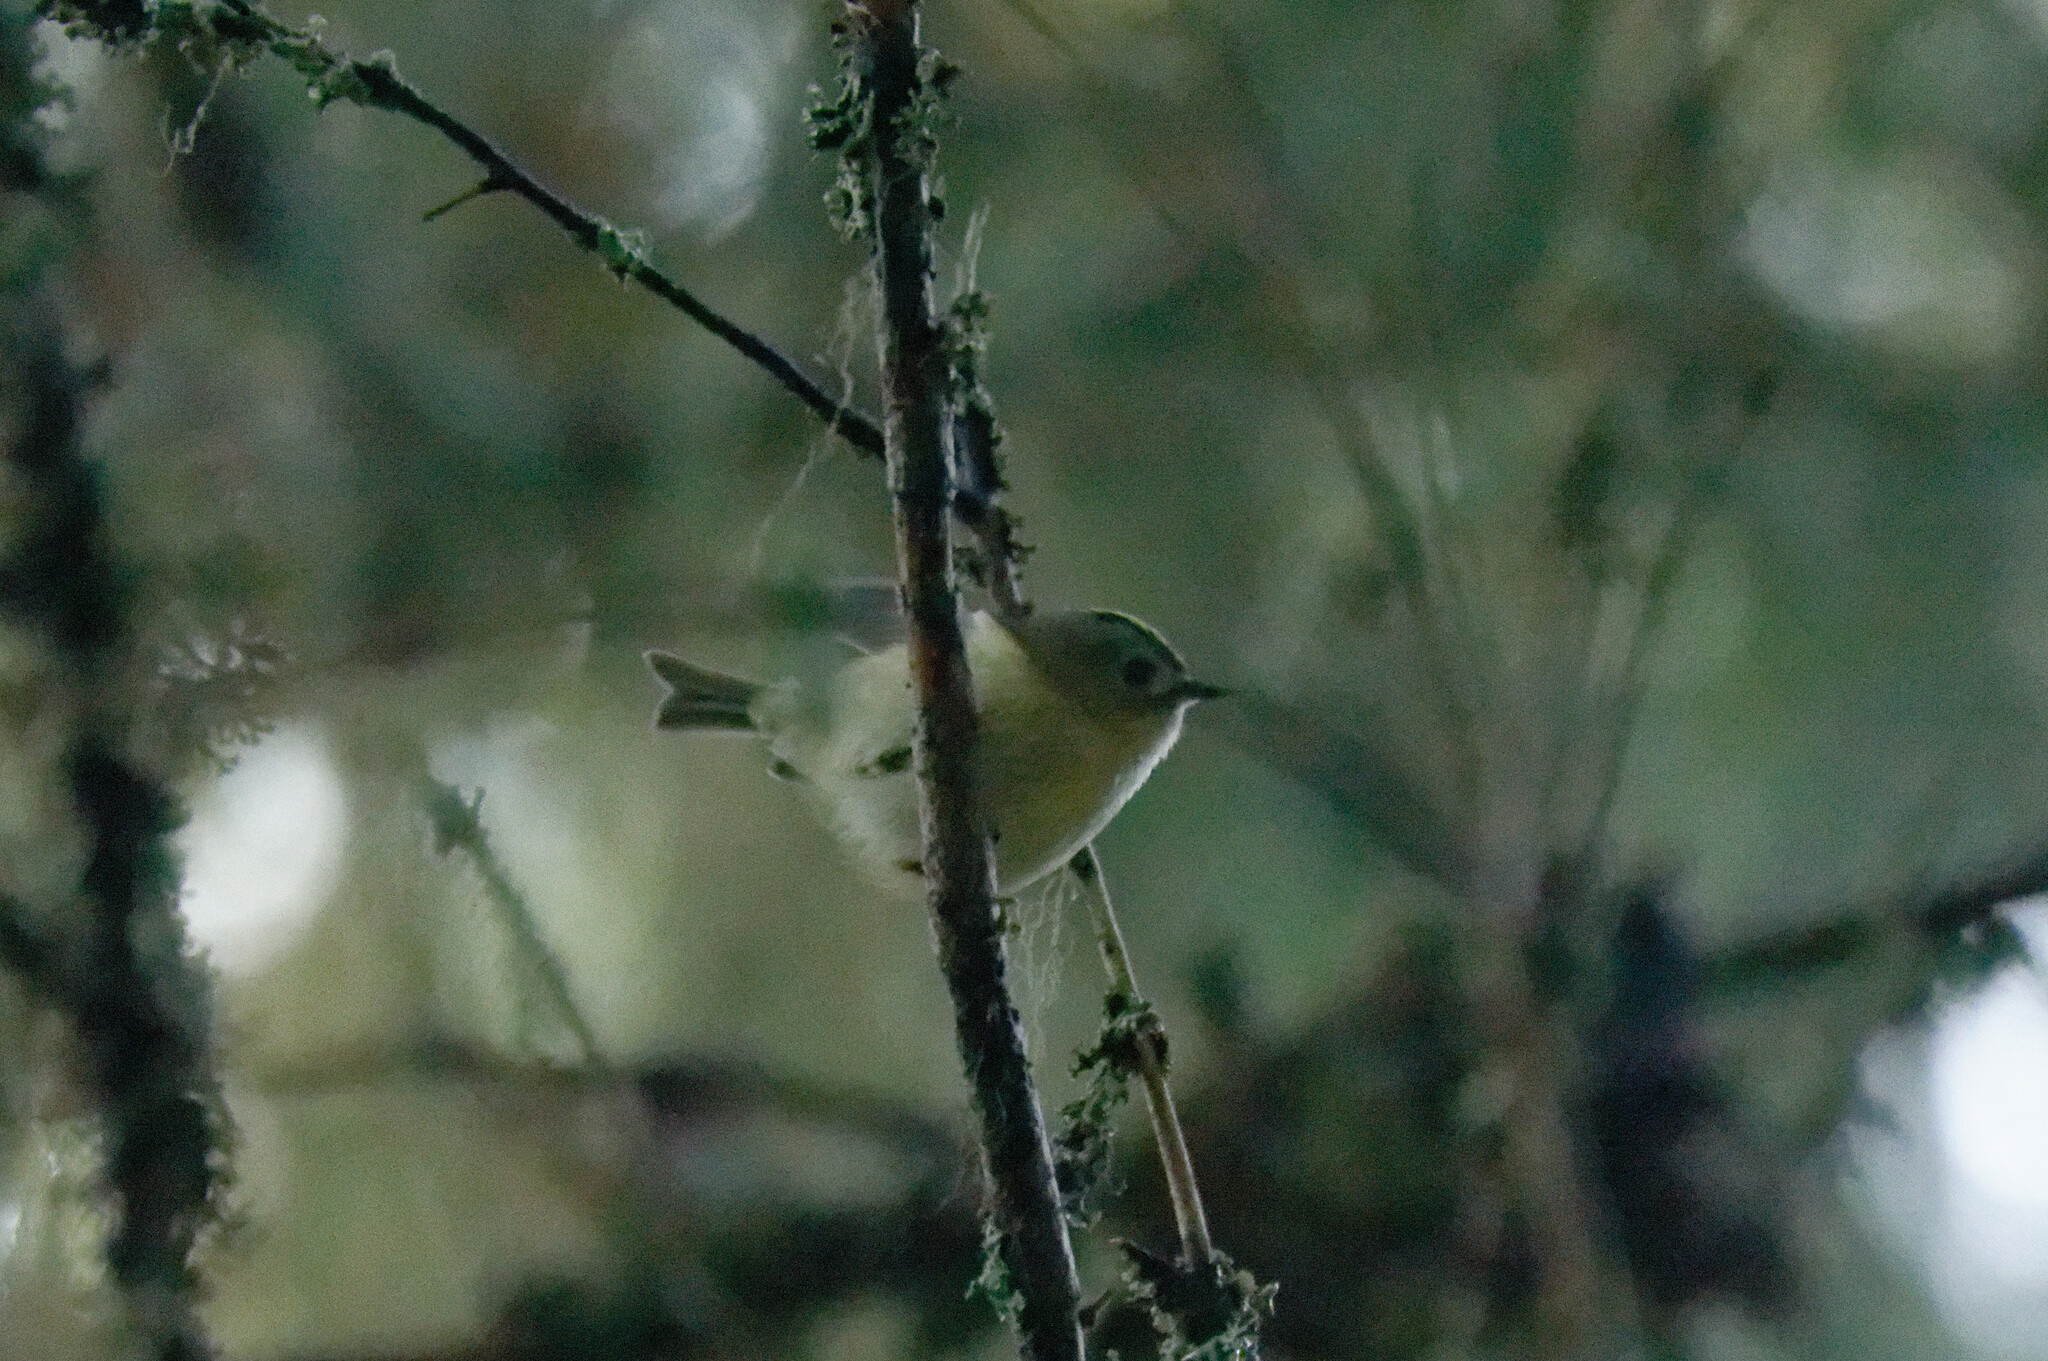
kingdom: Animalia
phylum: Chordata
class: Aves
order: Passeriformes
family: Regulidae
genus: Regulus
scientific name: Regulus regulus
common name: Goldcrest
